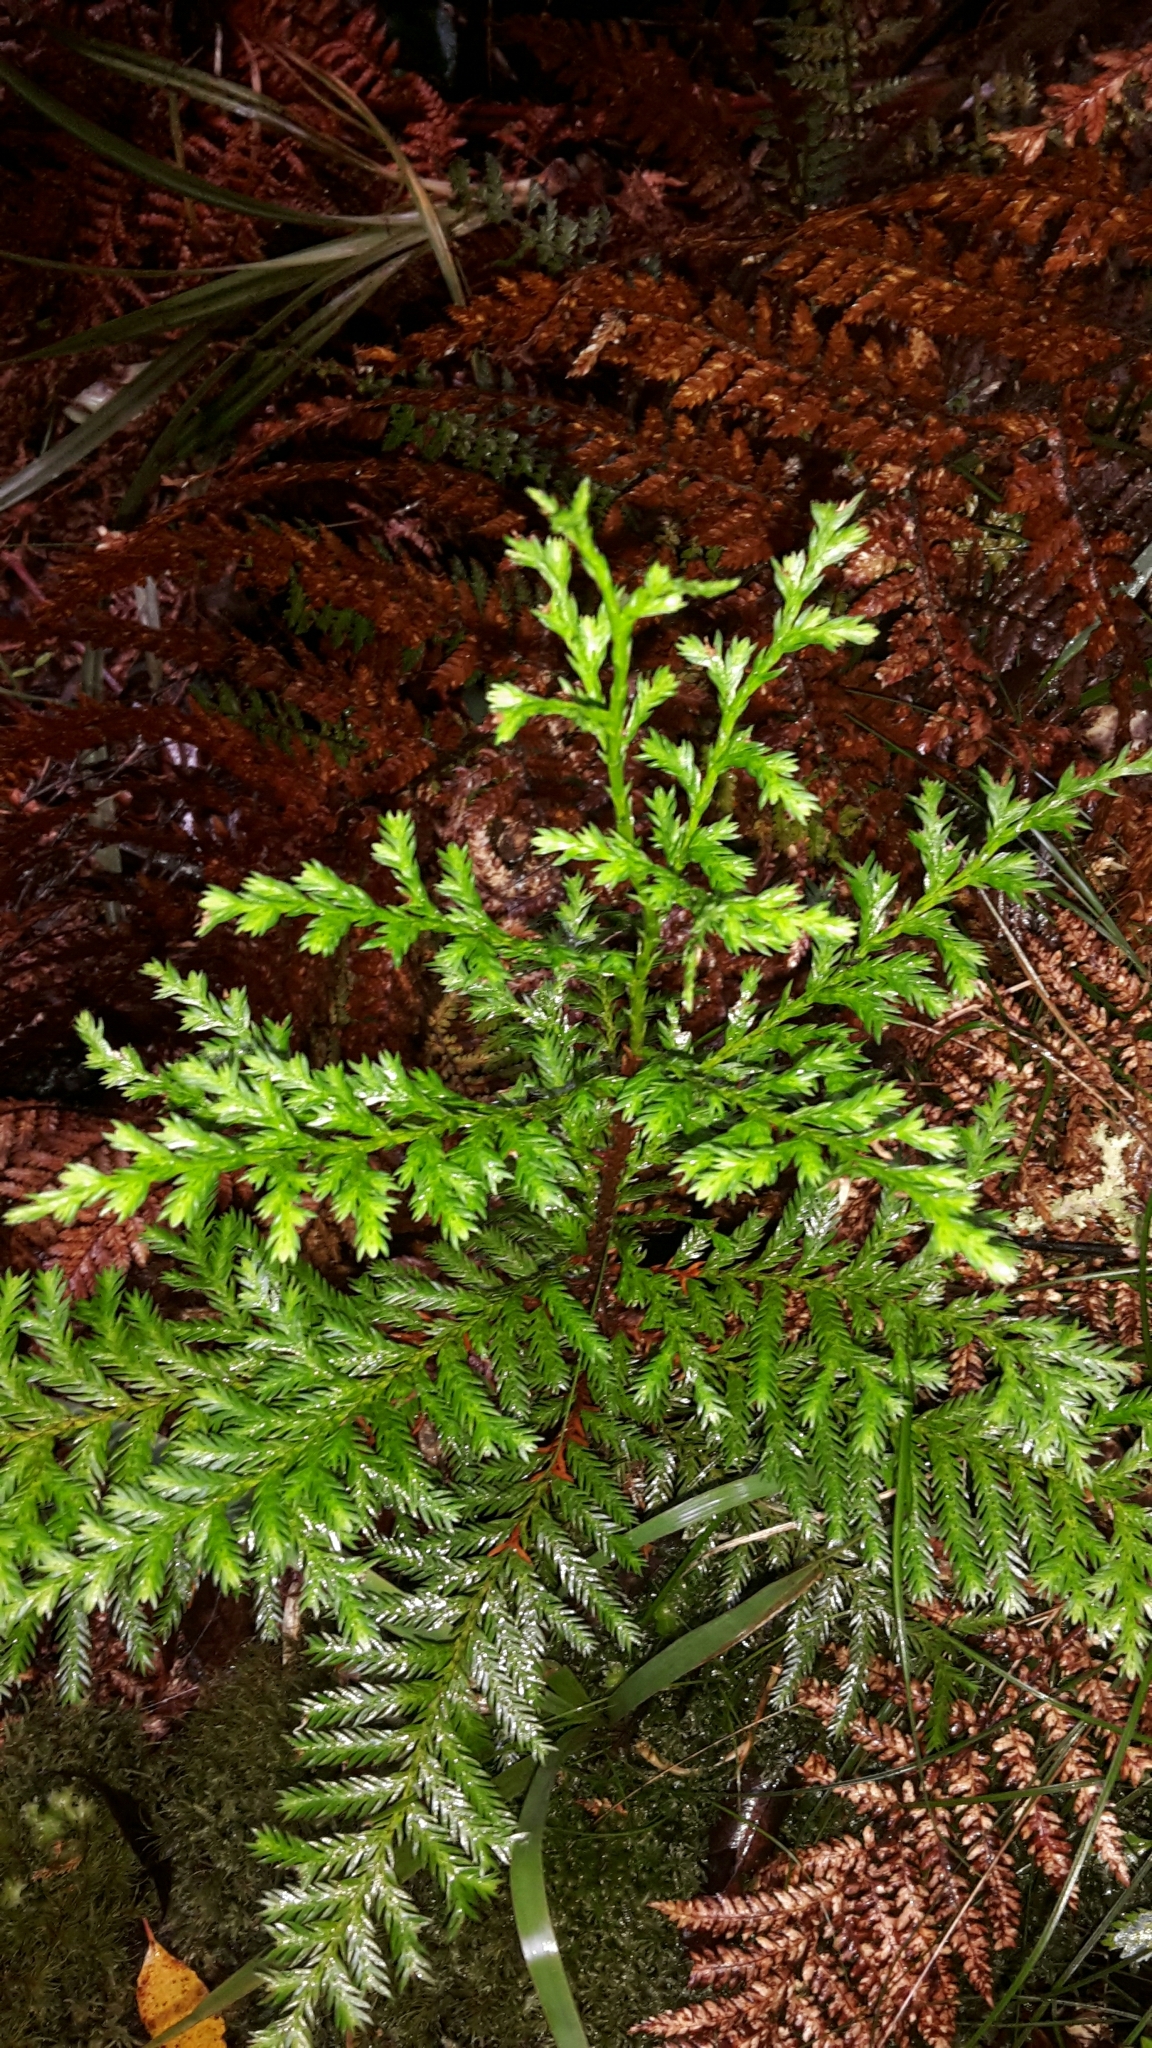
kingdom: Plantae
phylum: Tracheophyta
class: Pinopsida
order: Pinales
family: Cupressaceae
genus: Libocedrus
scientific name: Libocedrus bidwillii
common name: Cedar
